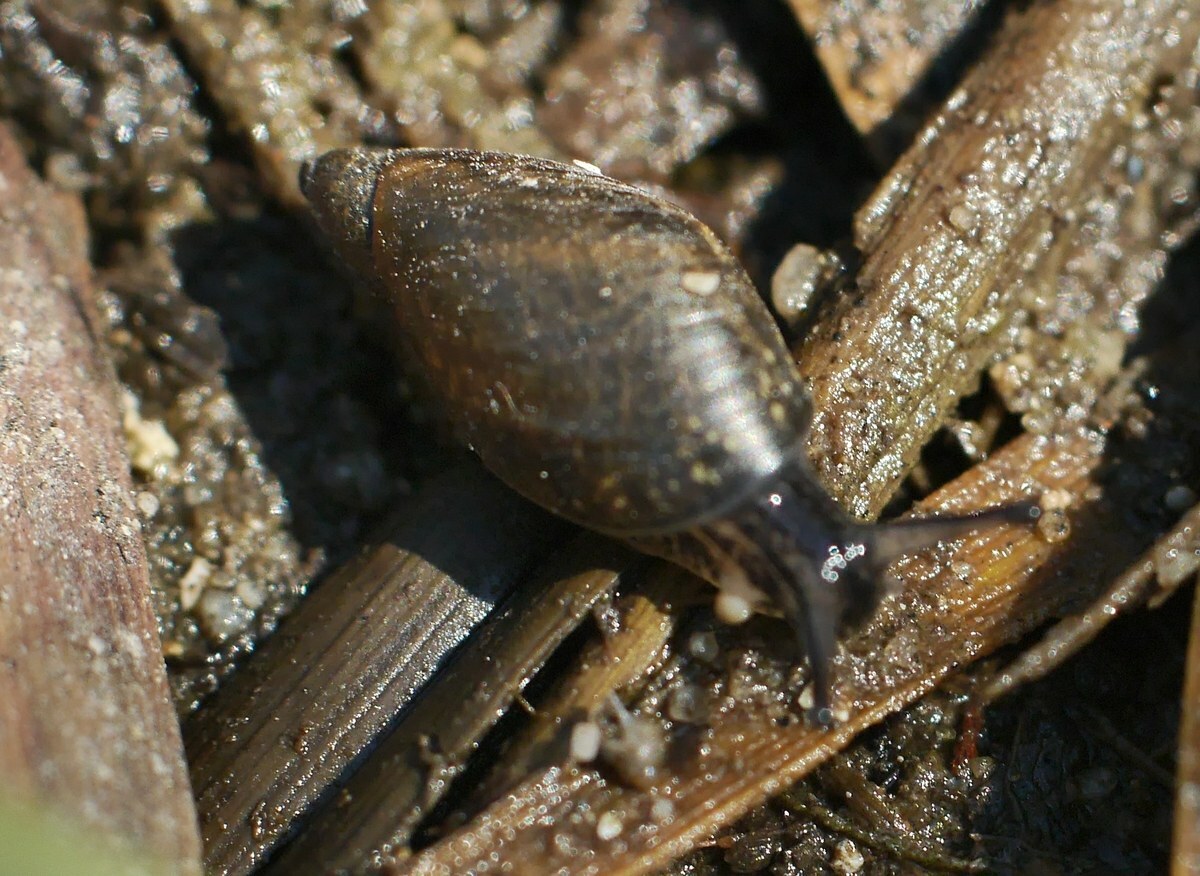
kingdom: Animalia
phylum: Mollusca
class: Gastropoda
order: Stylommatophora
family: Succineidae
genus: Oxyloma
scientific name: Oxyloma
